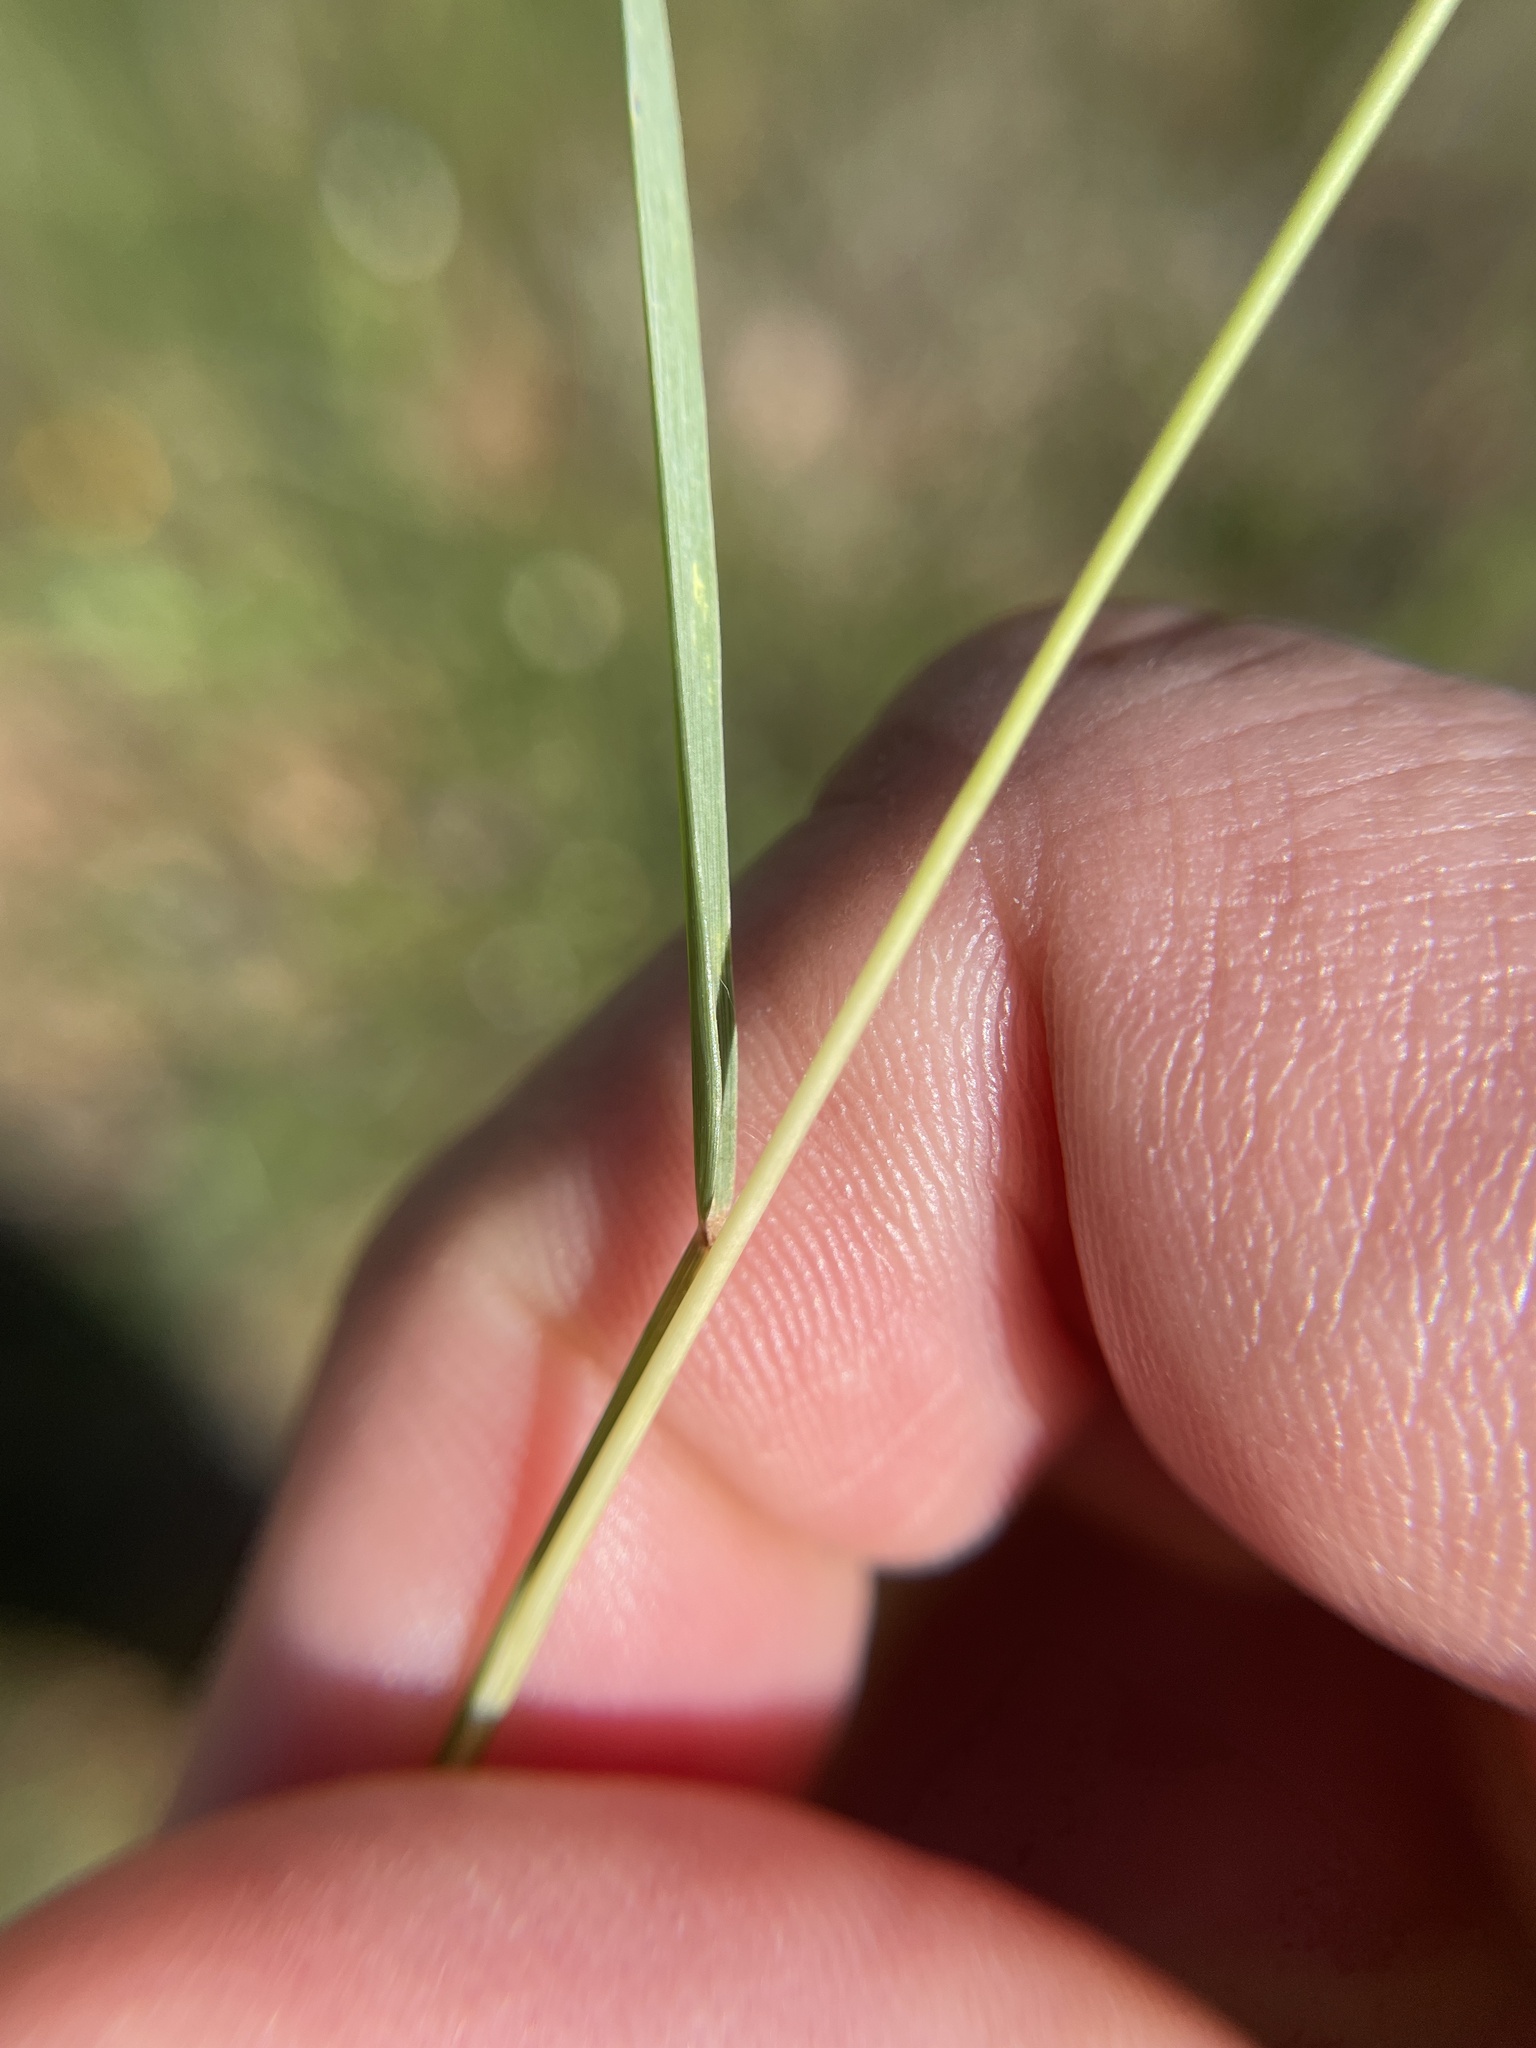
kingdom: Plantae
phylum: Tracheophyta
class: Liliopsida
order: Poales
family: Poaceae
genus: Eragrostis
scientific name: Eragrostis secundiflora
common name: Red love grass
